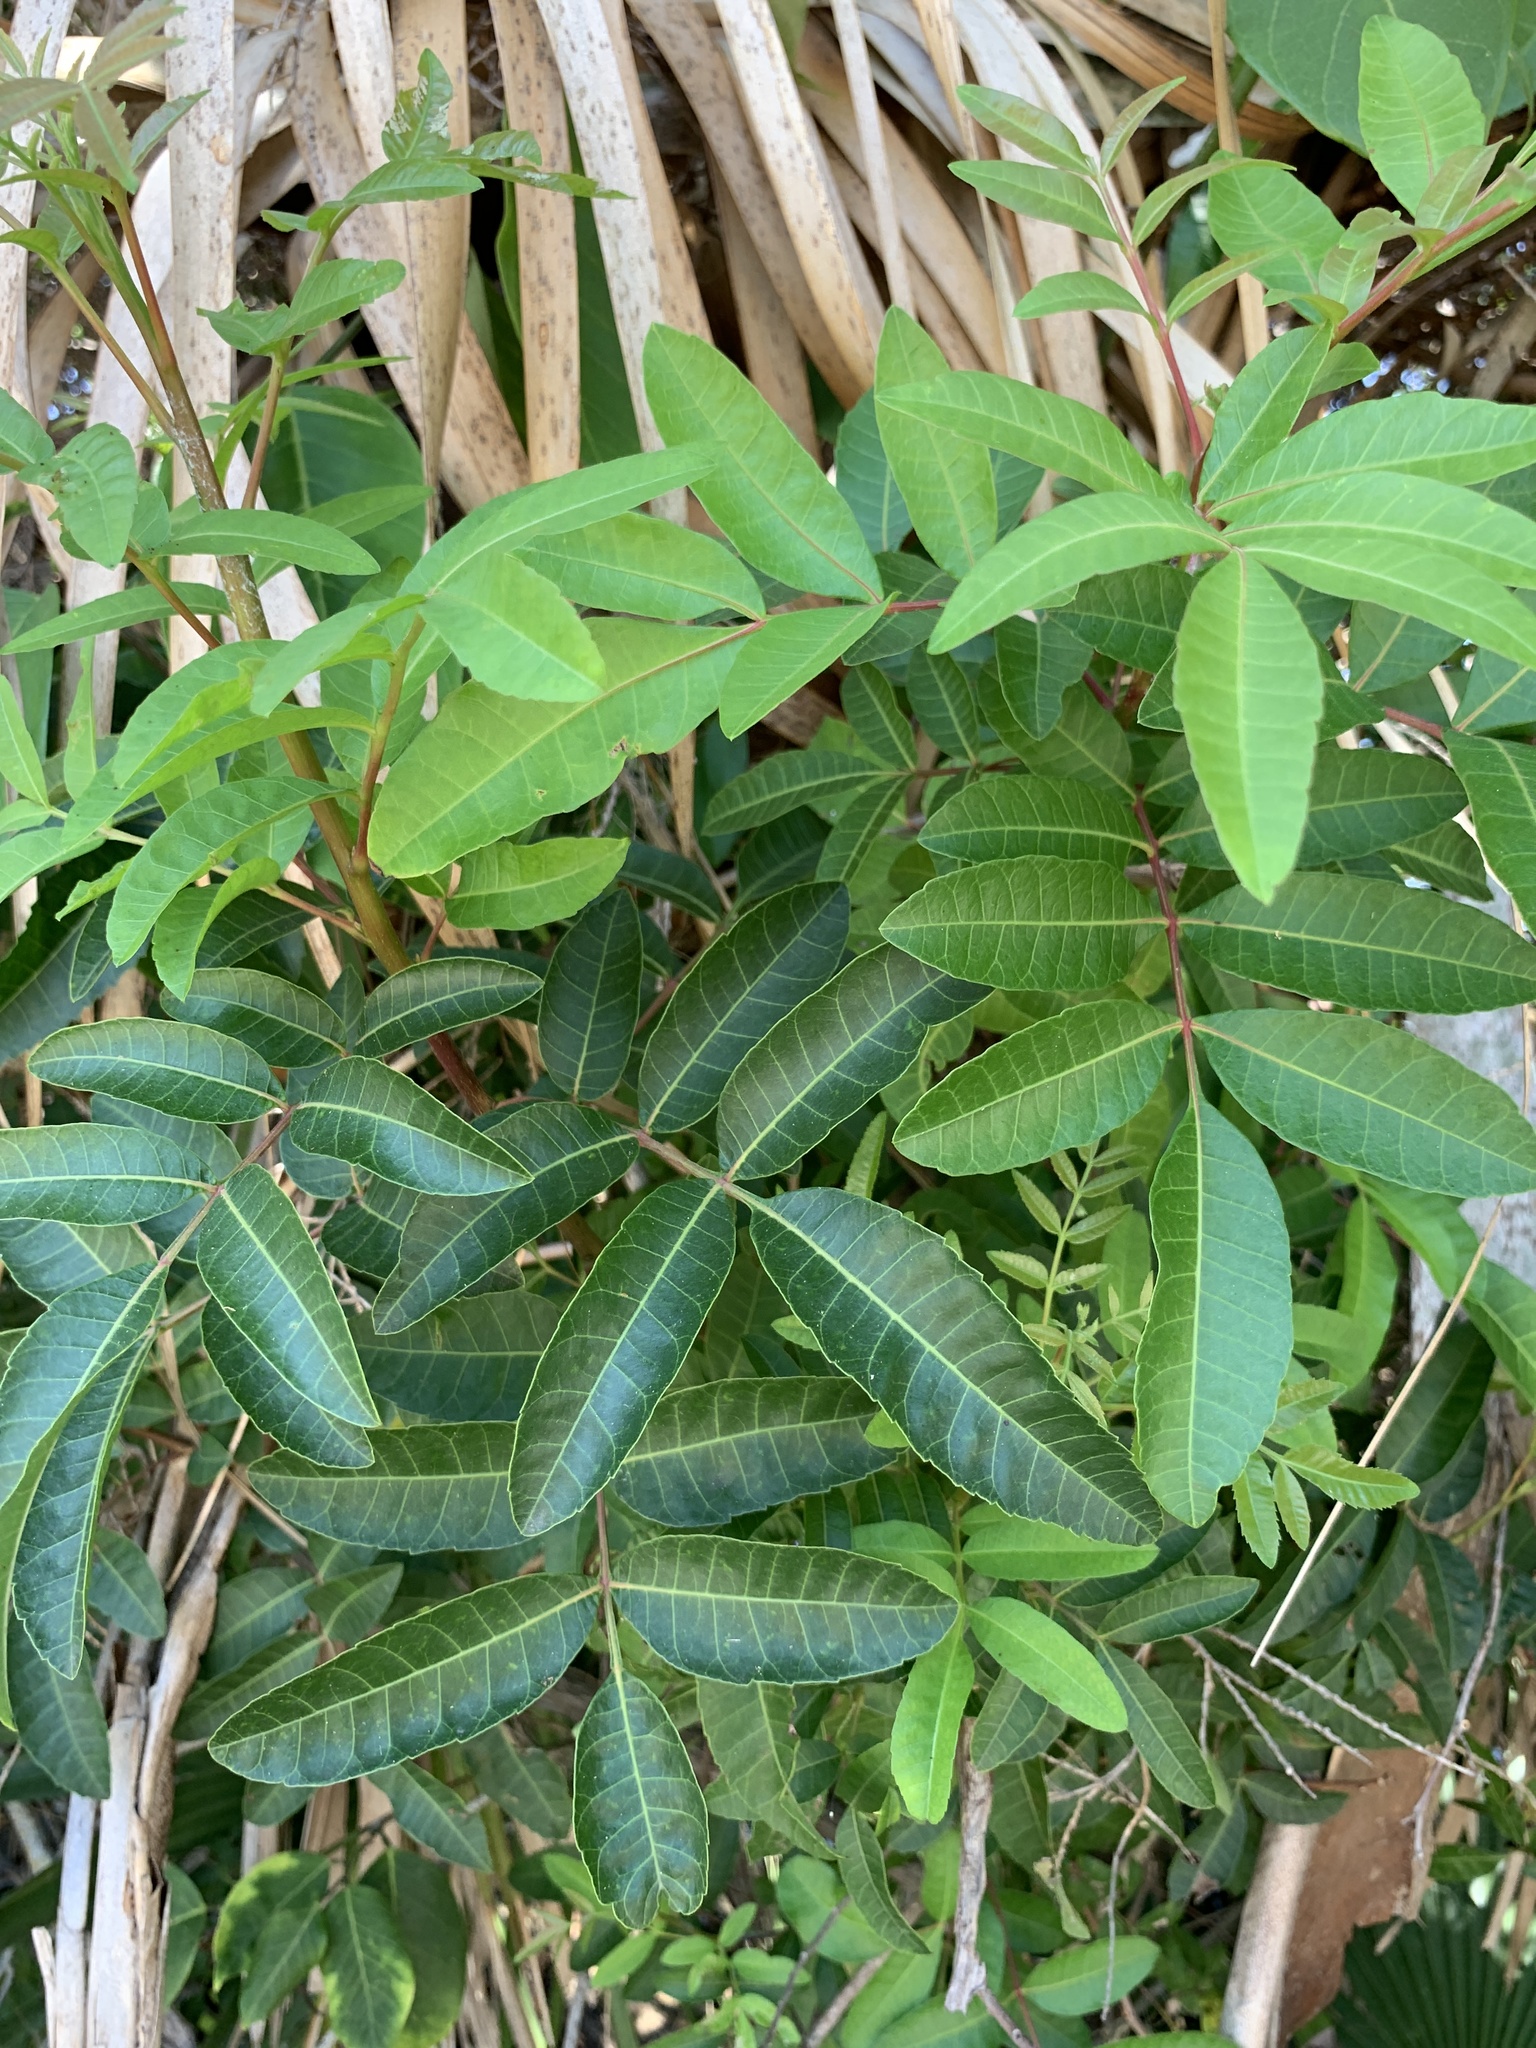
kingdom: Plantae
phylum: Tracheophyta
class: Magnoliopsida
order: Sapindales
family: Anacardiaceae
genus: Schinus
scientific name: Schinus terebinthifolia
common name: Brazilian peppertree
